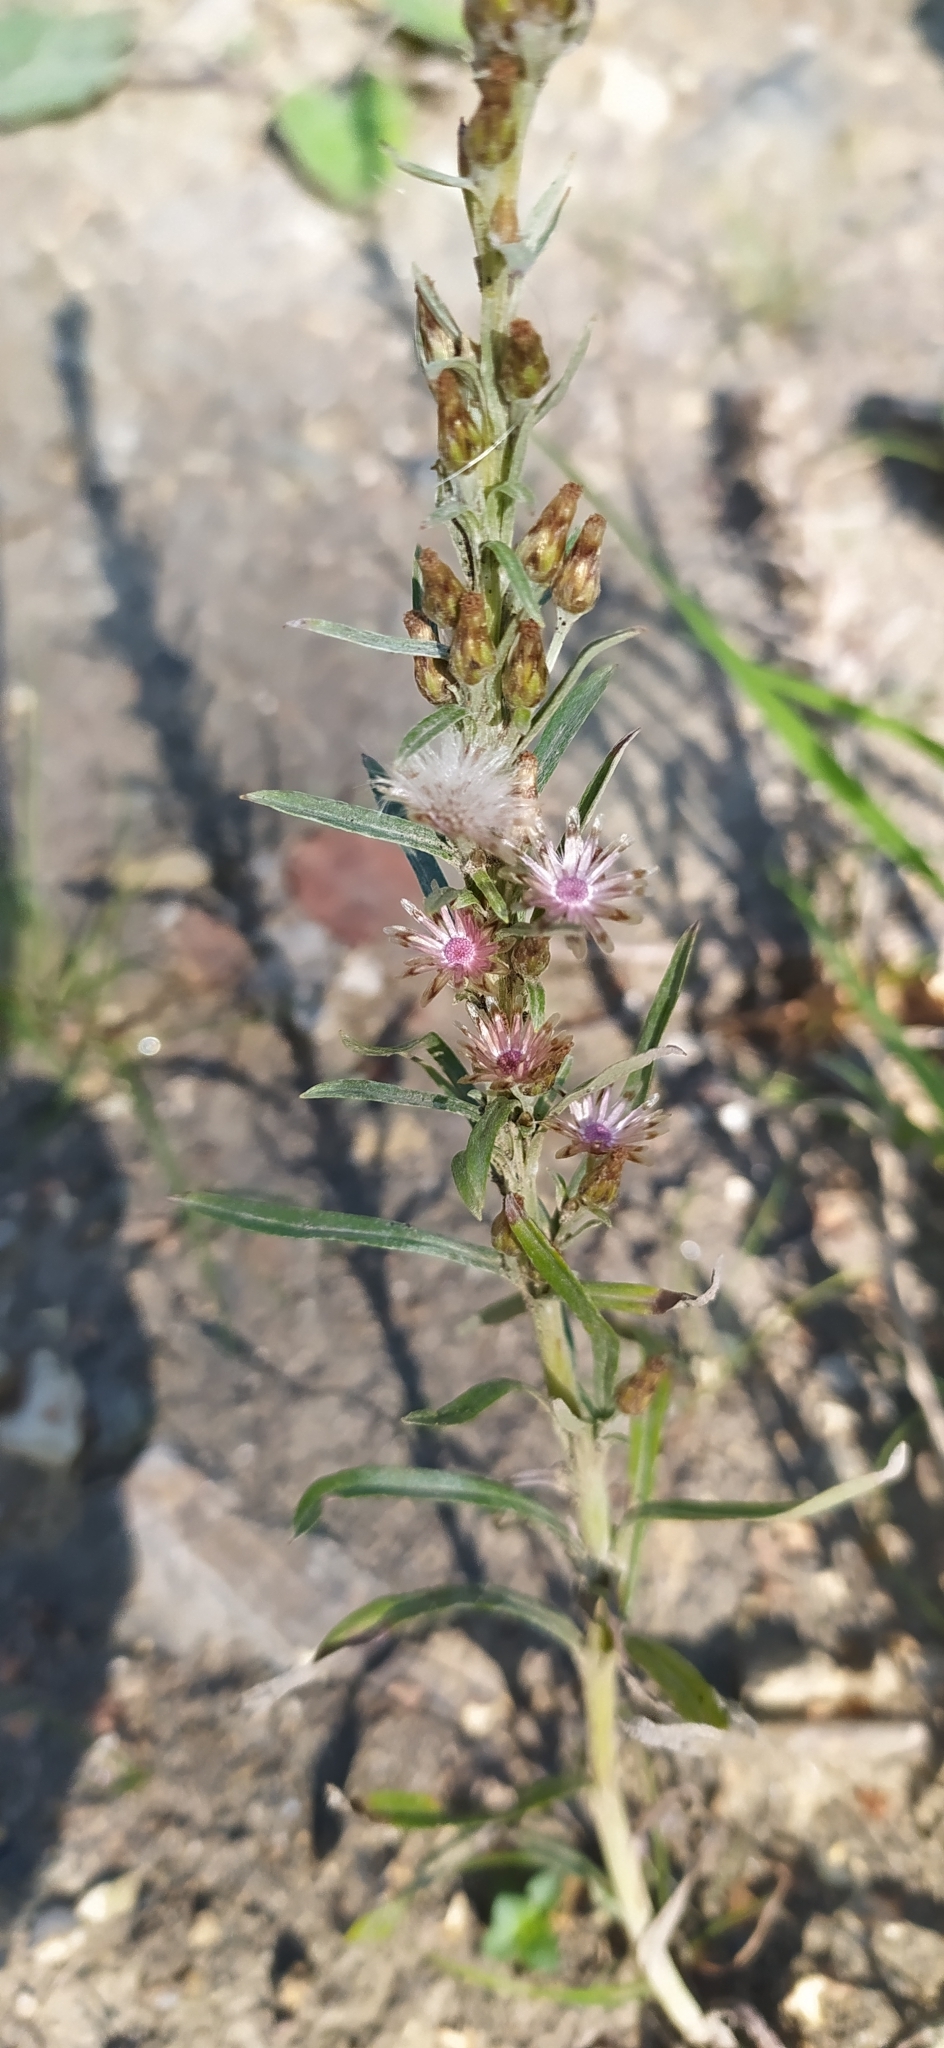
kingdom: Plantae
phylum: Tracheophyta
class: Magnoliopsida
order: Asterales
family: Asteraceae
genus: Omalotheca
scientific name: Omalotheca sylvatica
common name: Heath cudweed
